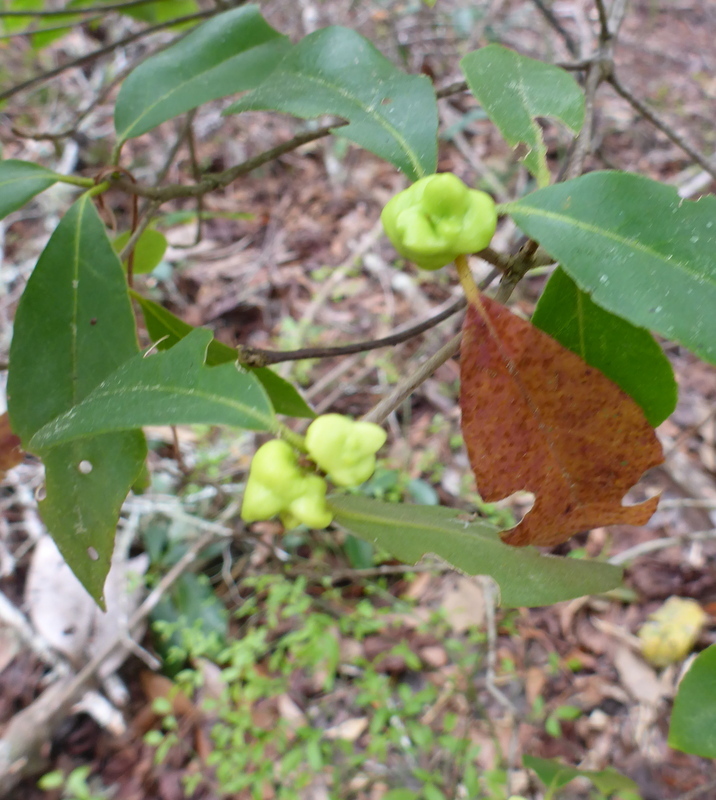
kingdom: Plantae
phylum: Tracheophyta
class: Magnoliopsida
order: Ericales
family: Symplocaceae
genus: Symplocos
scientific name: Symplocos tinctoria
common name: Horse-sugar
